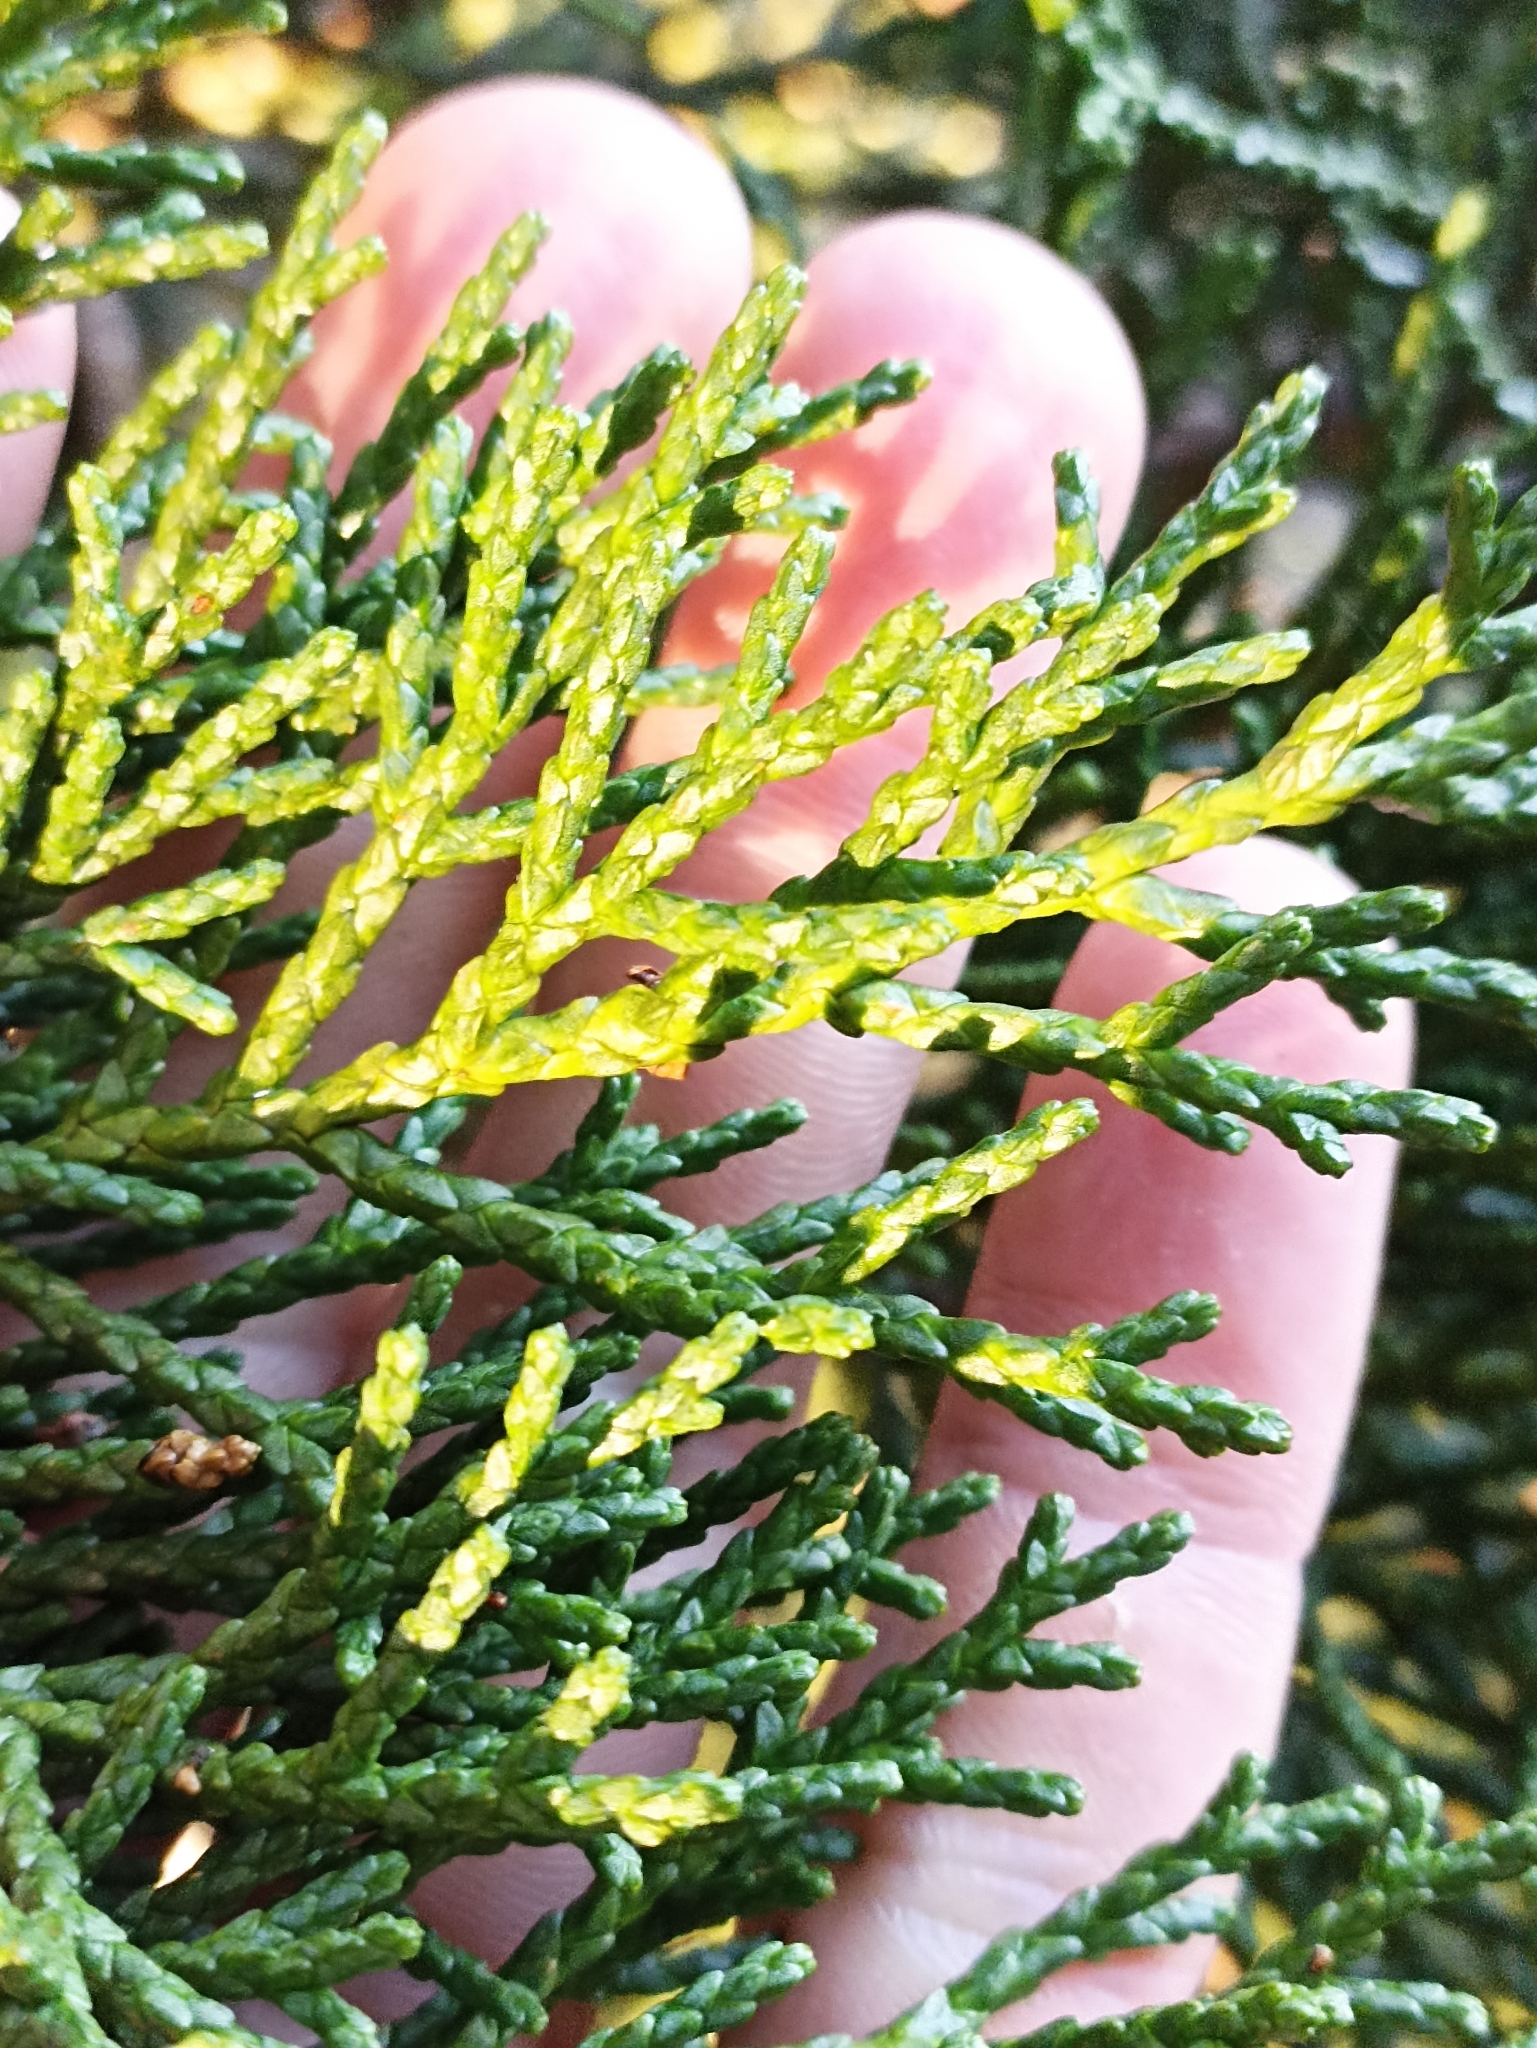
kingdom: Plantae
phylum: Tracheophyta
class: Pinopsida
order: Pinales
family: Podocarpaceae
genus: Halocarpus
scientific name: Halocarpus biformis
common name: Alpine tarwood
